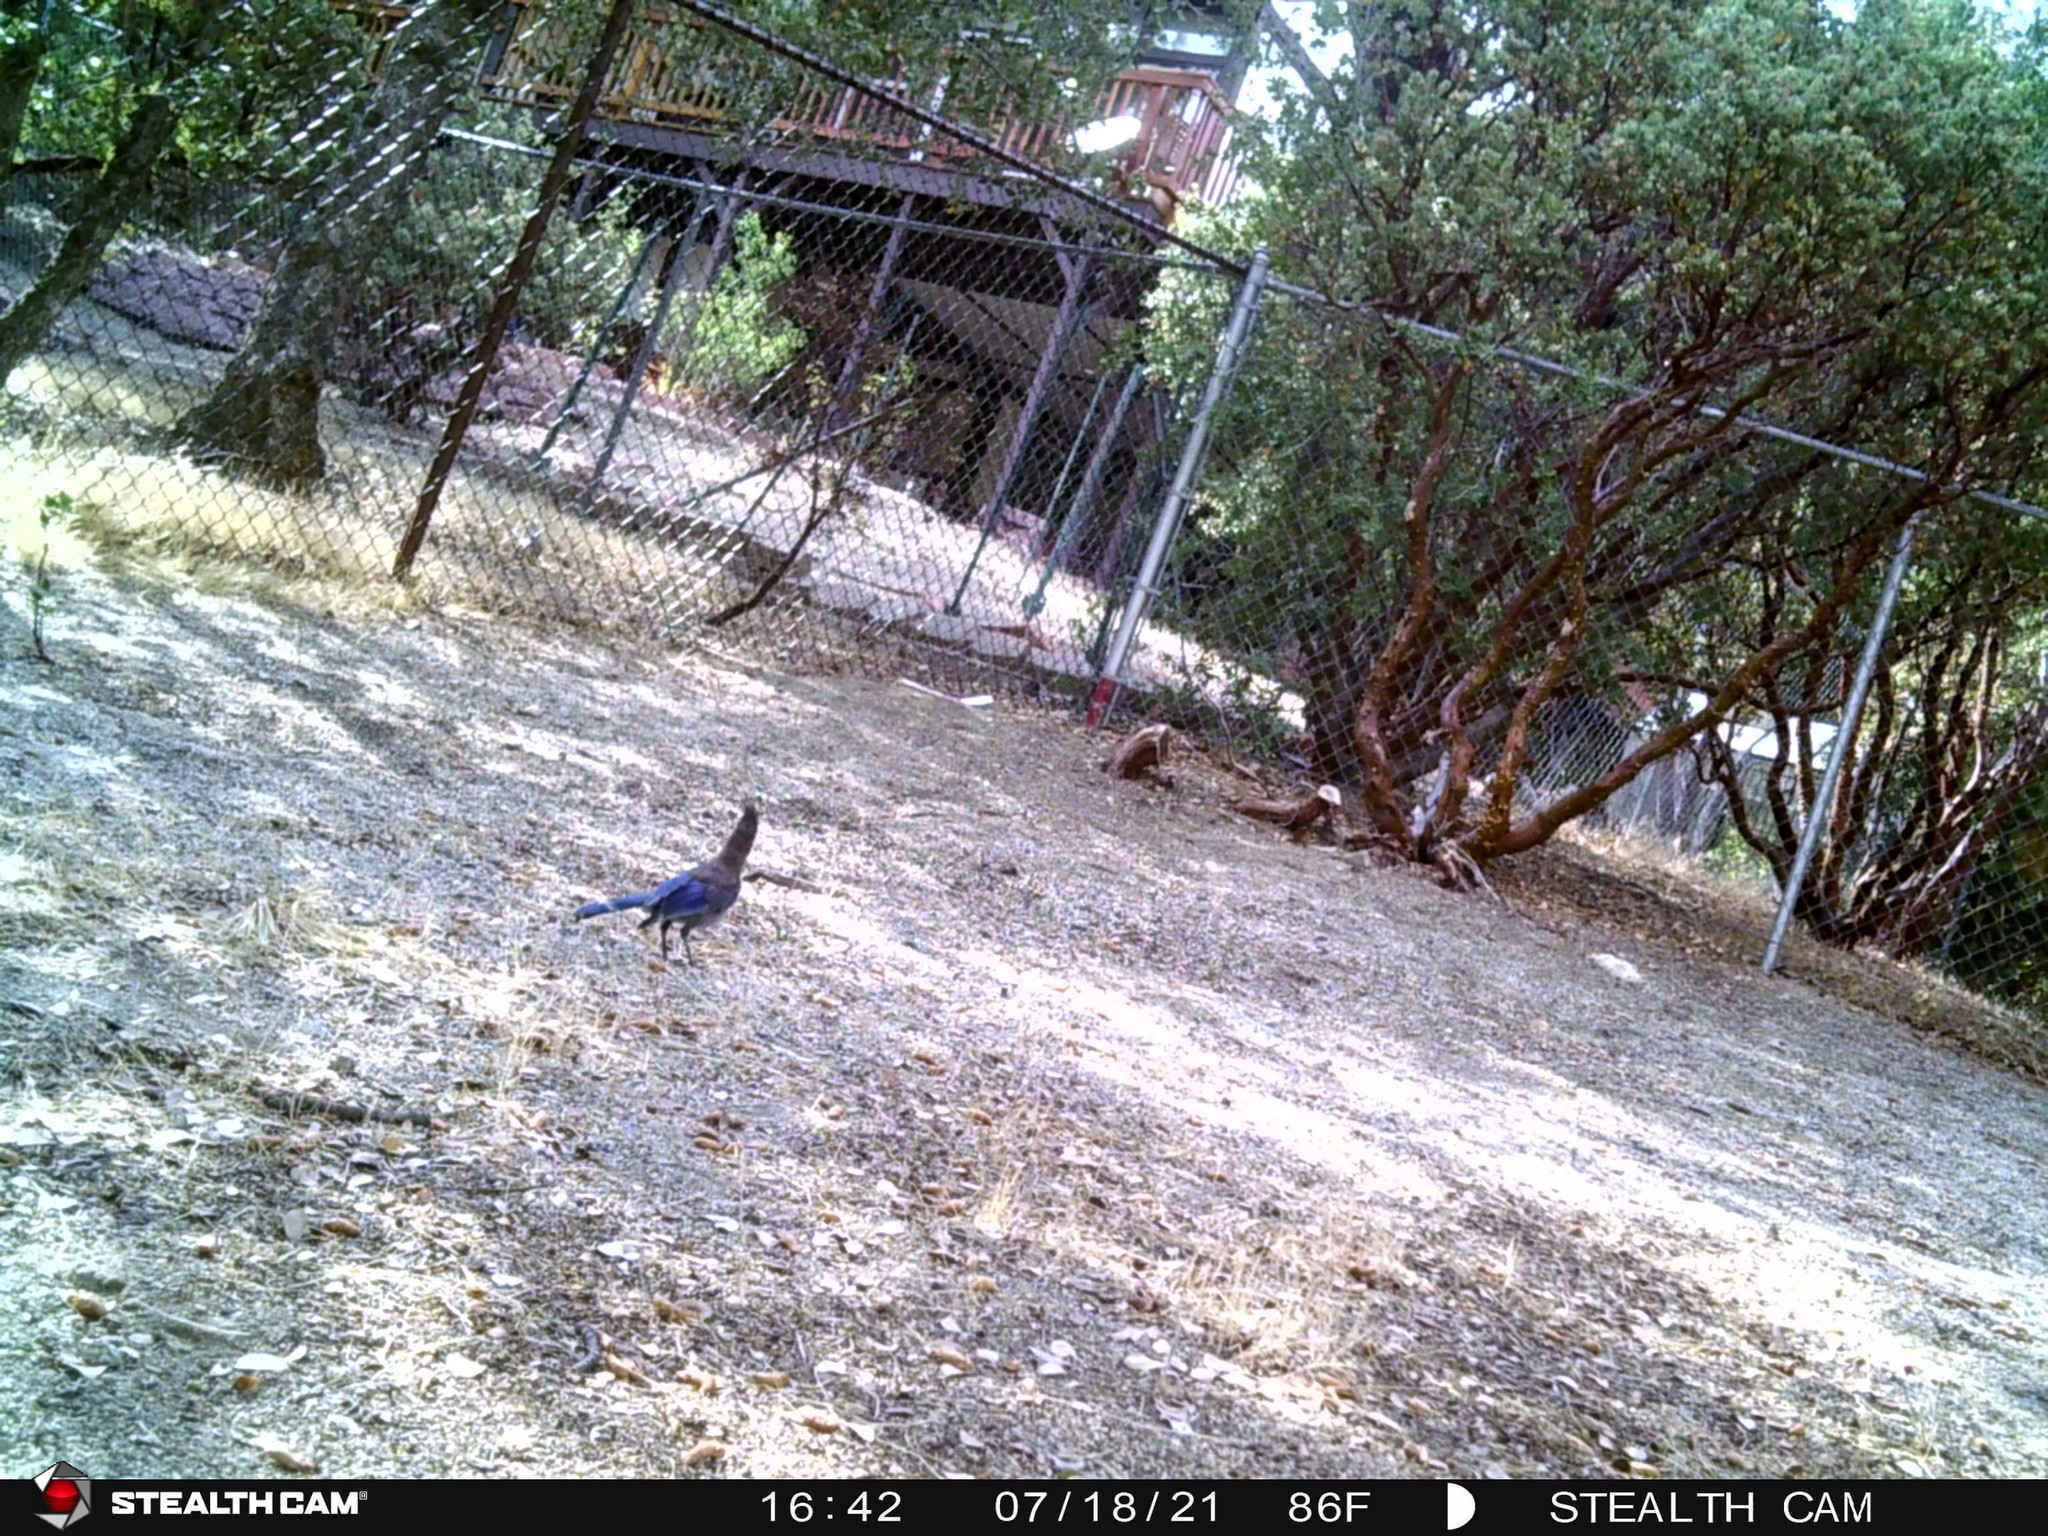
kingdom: Animalia
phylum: Chordata
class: Aves
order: Passeriformes
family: Corvidae
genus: Cyanocitta
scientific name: Cyanocitta stelleri
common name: Steller's jay
